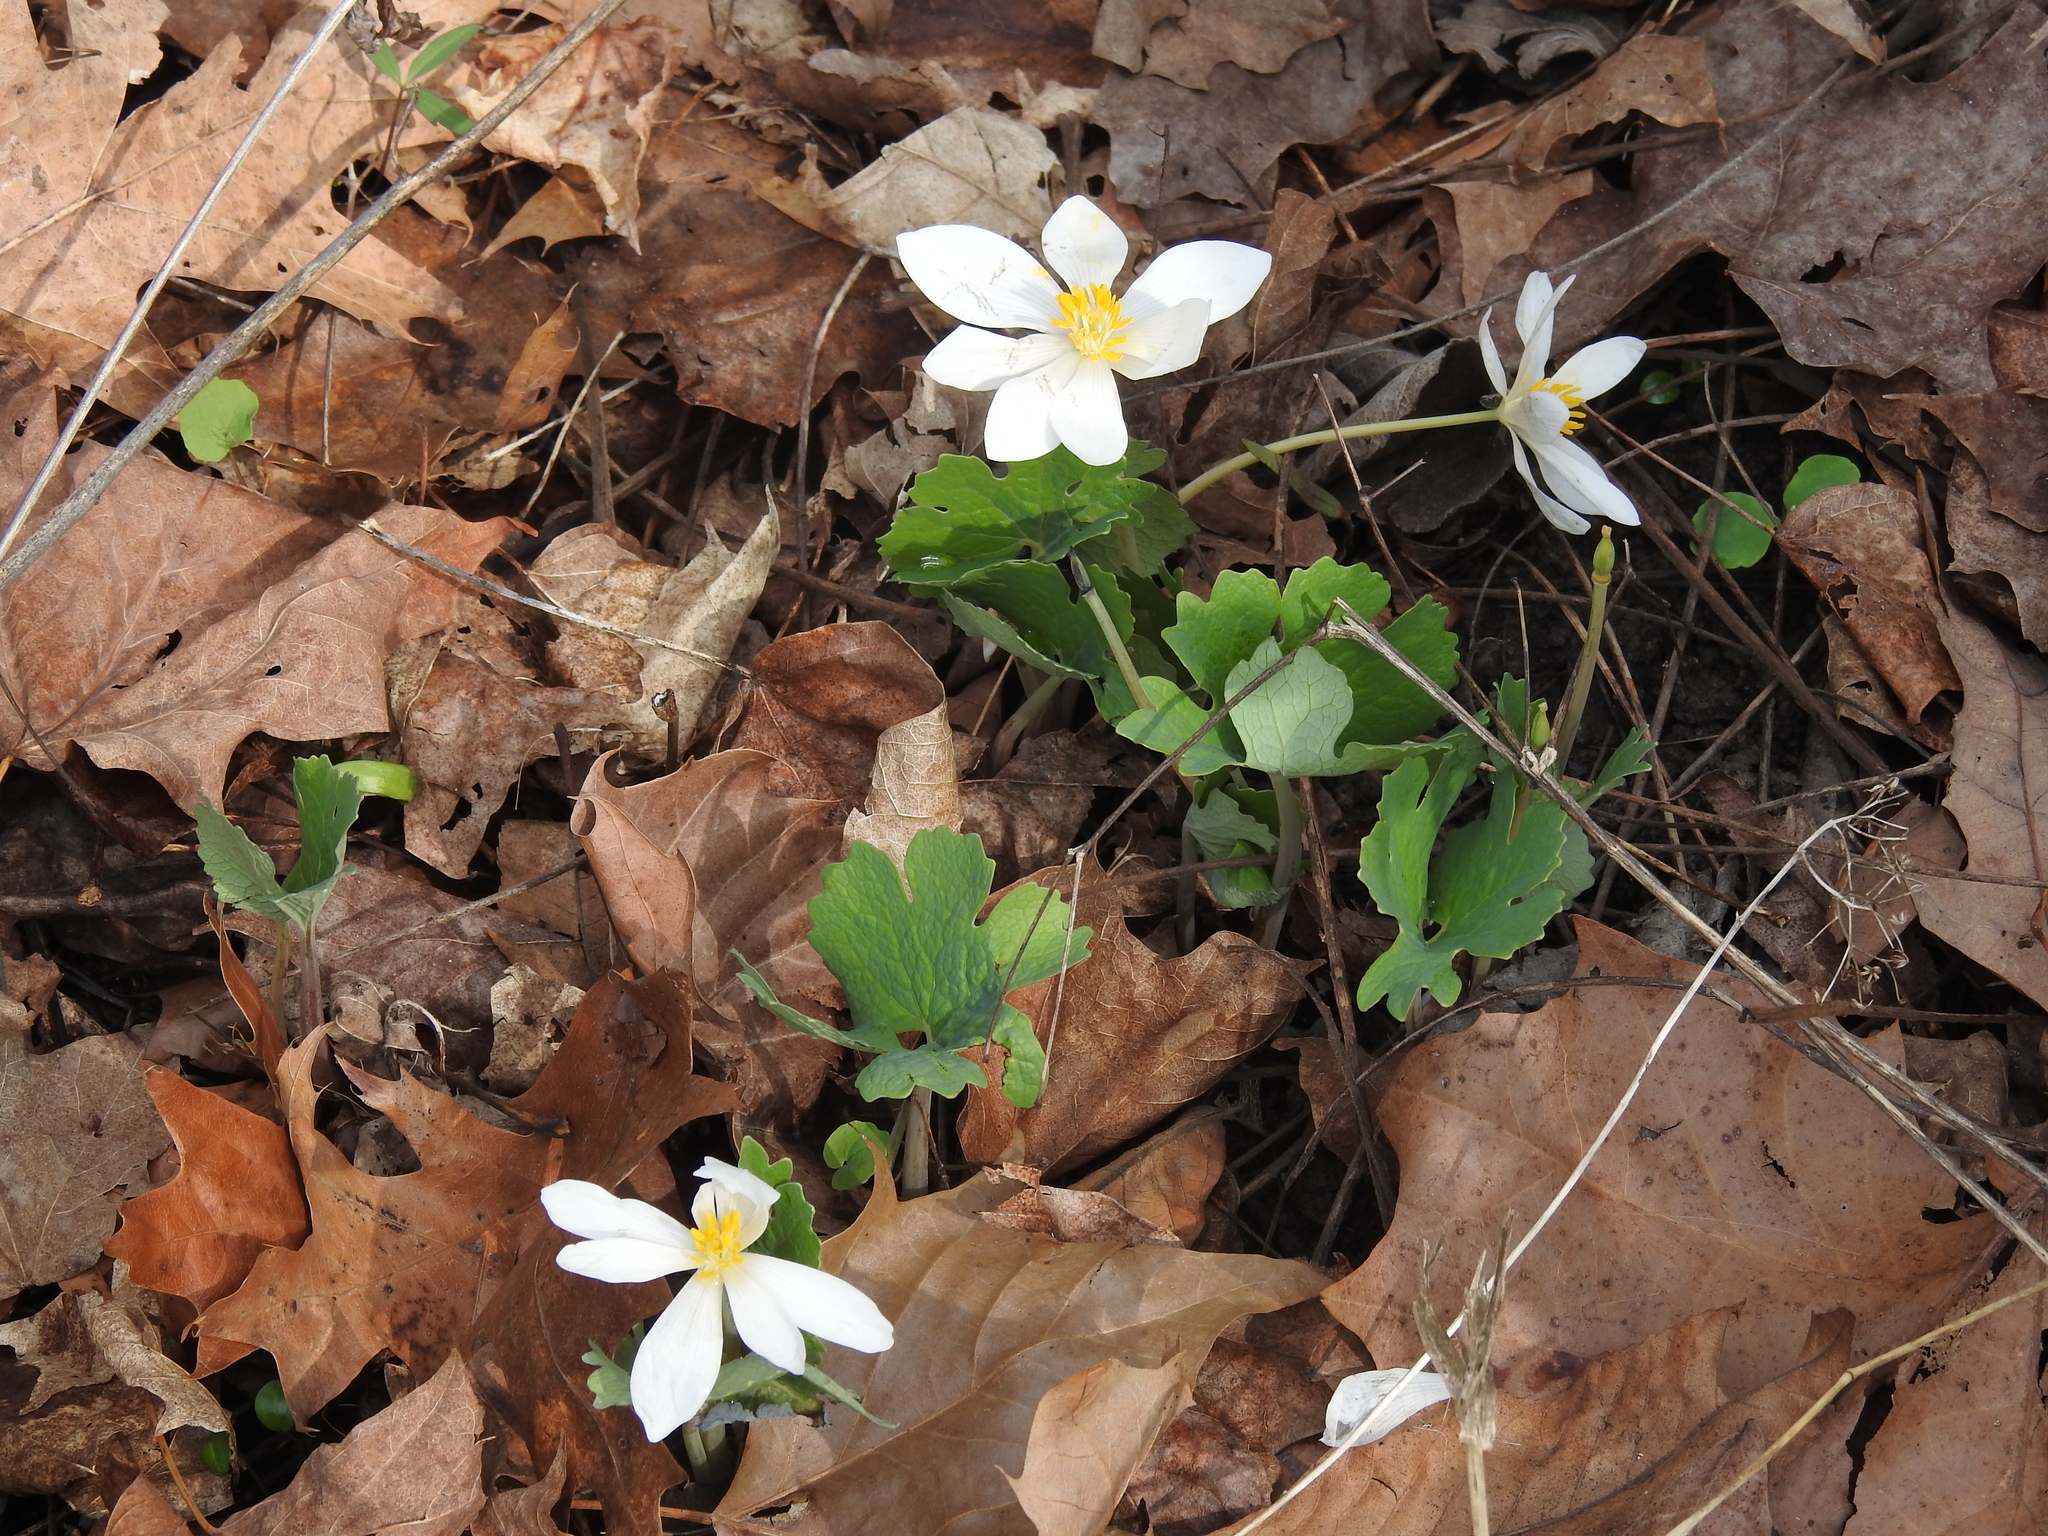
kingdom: Plantae
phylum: Tracheophyta
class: Magnoliopsida
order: Ranunculales
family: Papaveraceae
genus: Sanguinaria
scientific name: Sanguinaria canadensis
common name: Bloodroot
